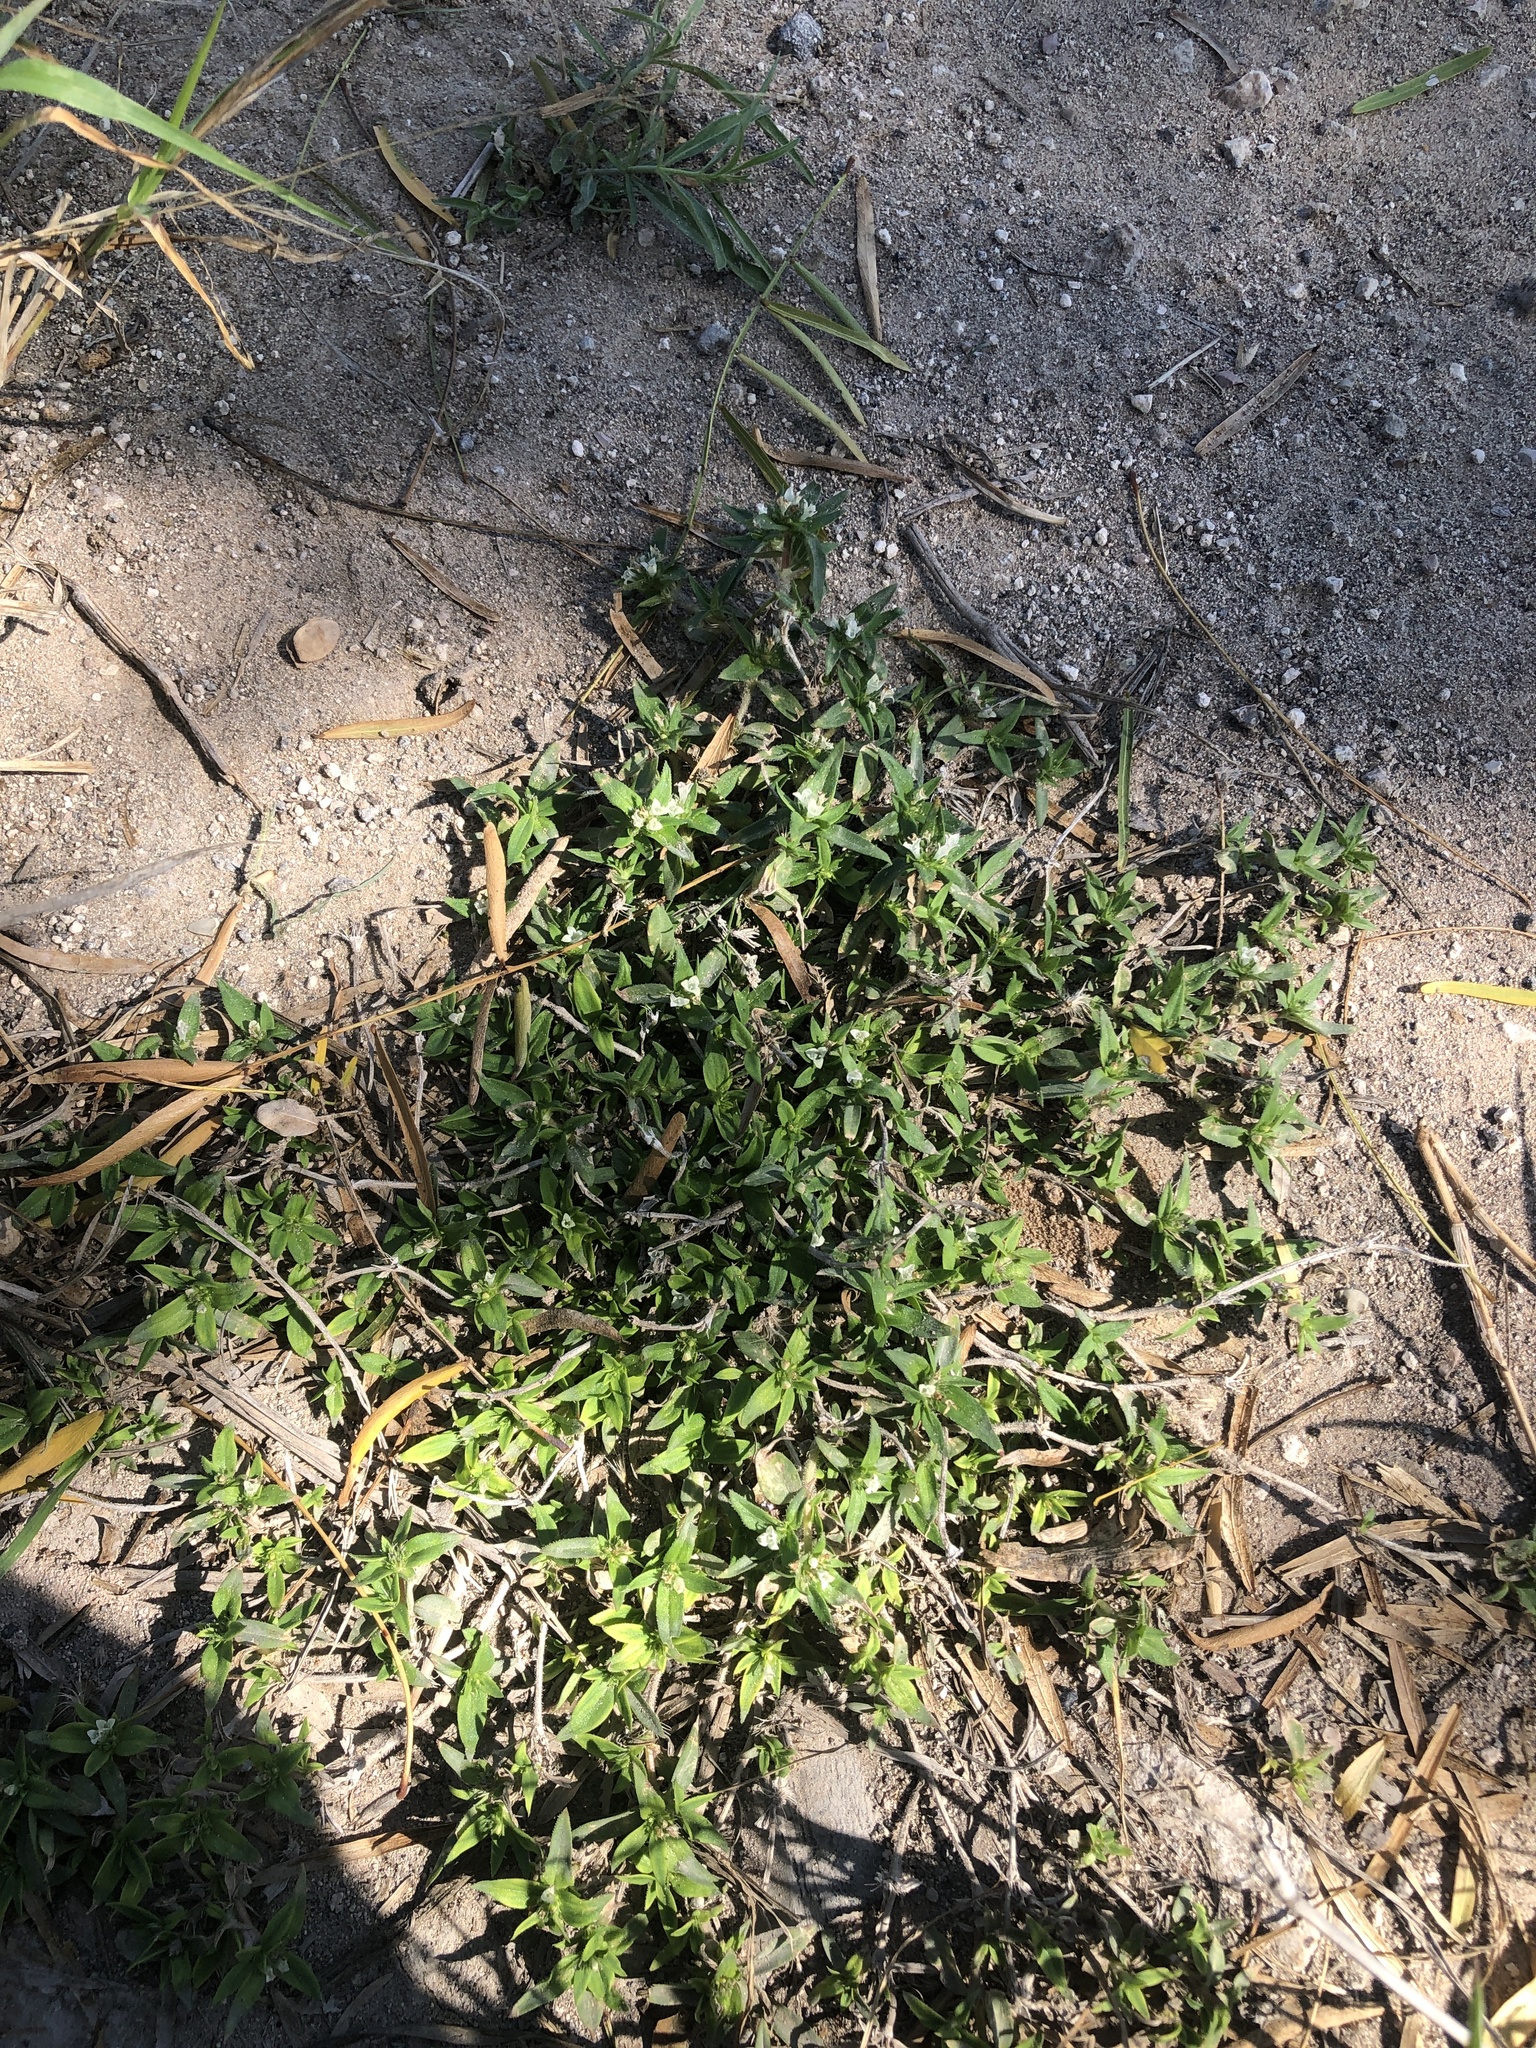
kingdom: Plantae
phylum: Tracheophyta
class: Magnoliopsida
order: Gentianales
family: Rubiaceae
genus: Richardia
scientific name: Richardia tricocca
